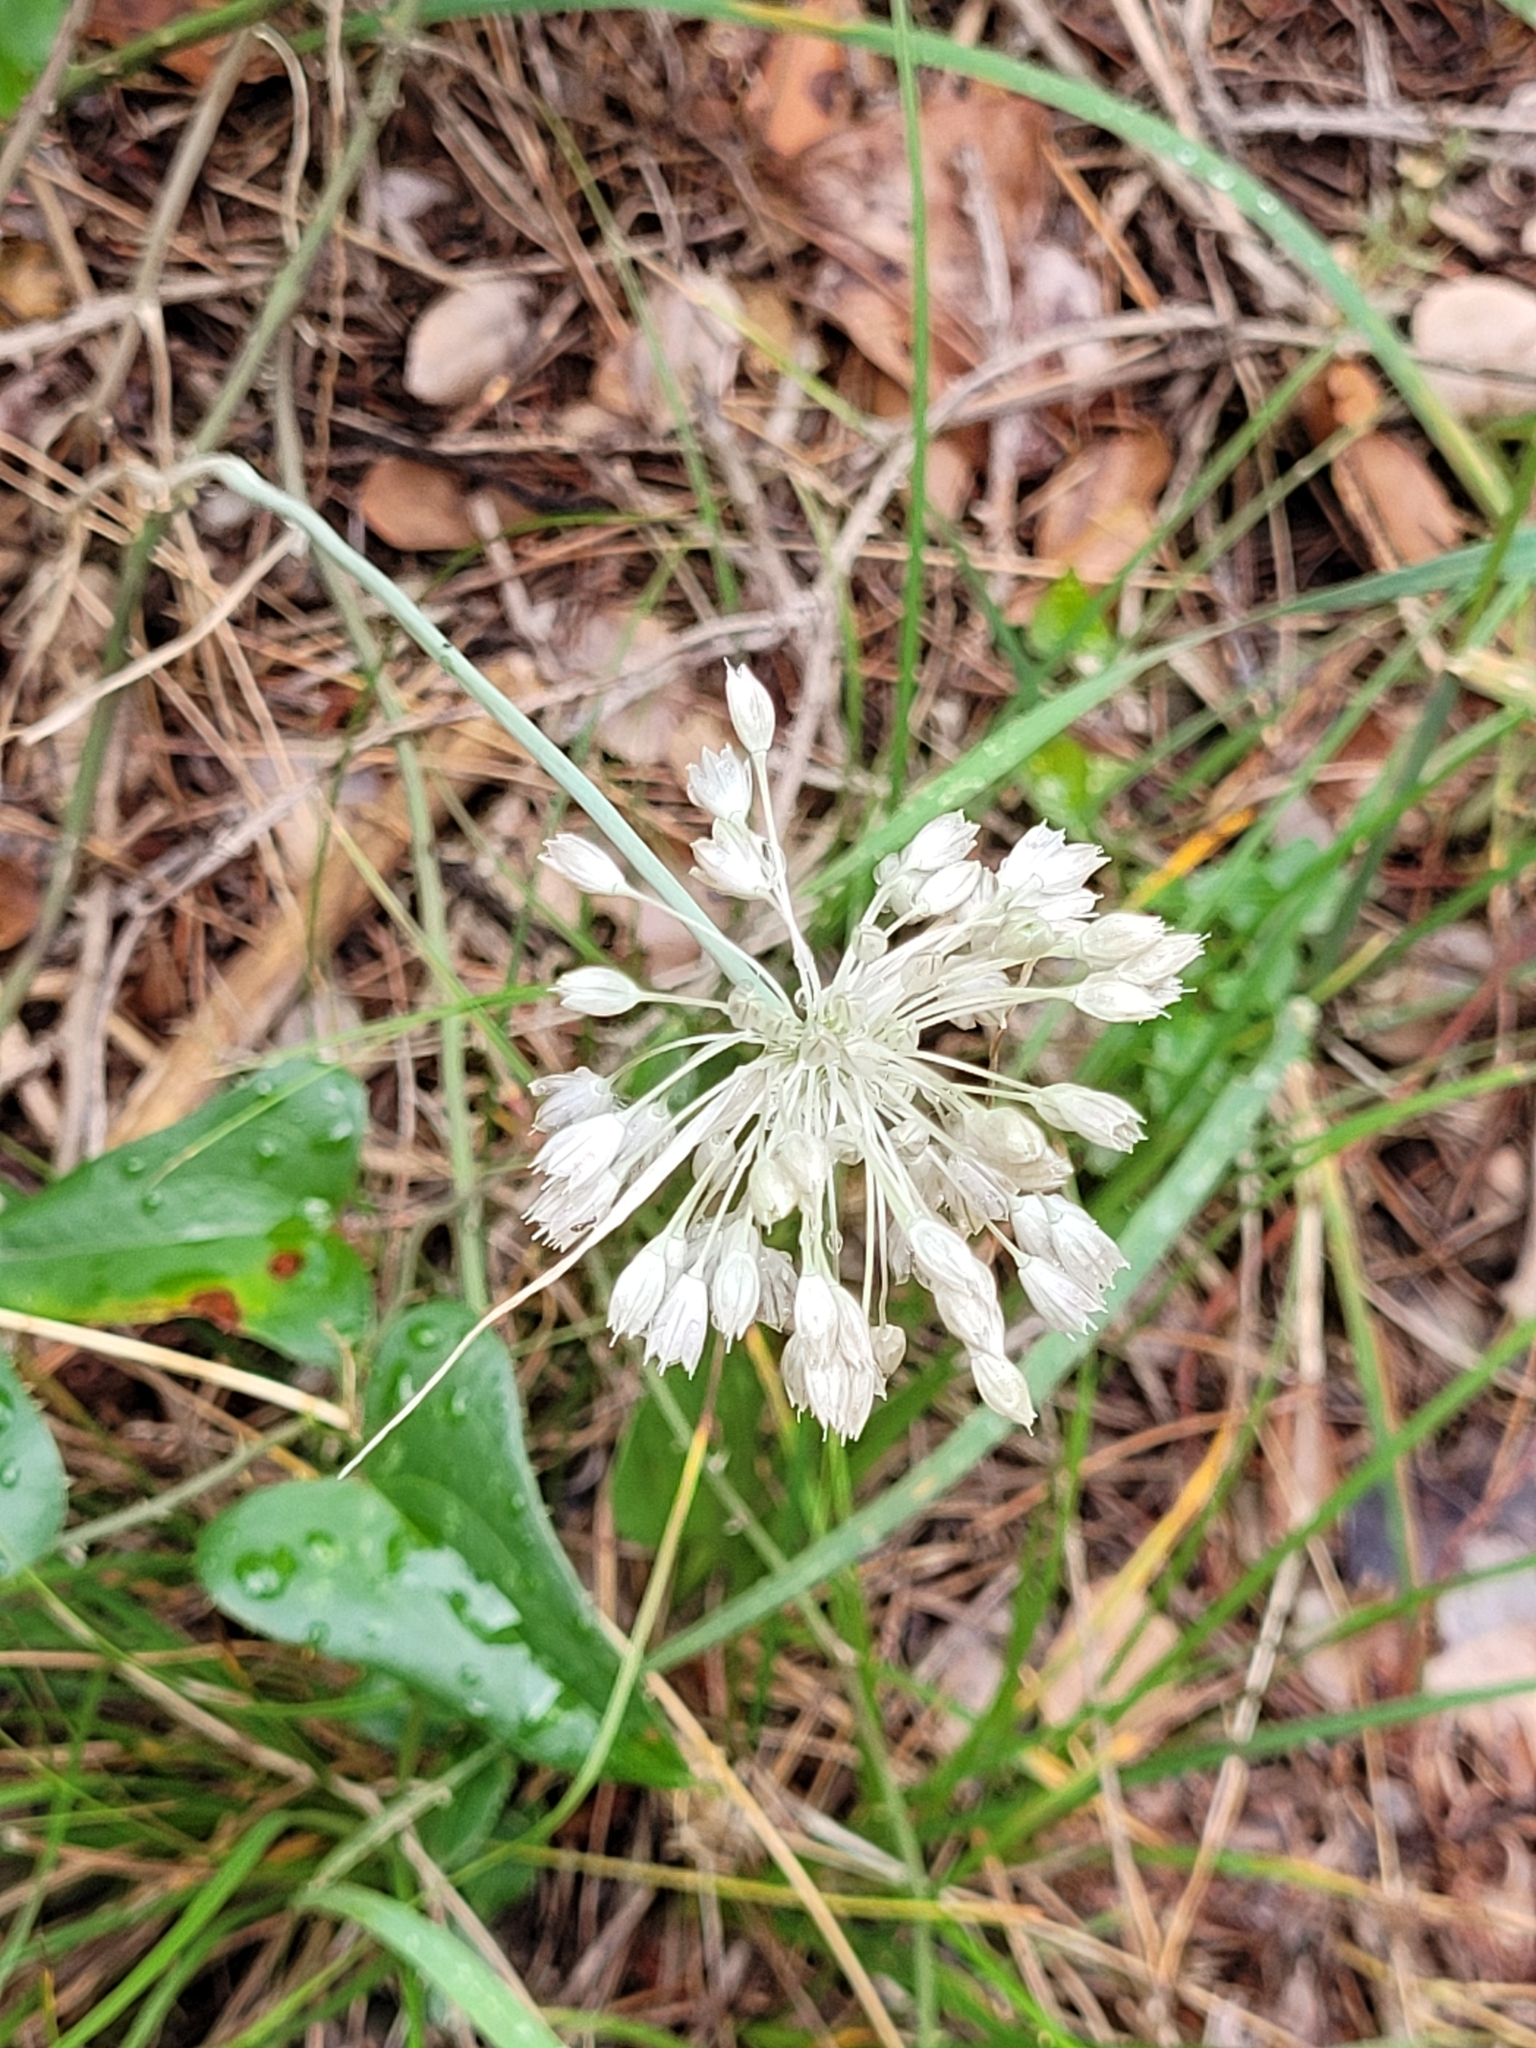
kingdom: Plantae
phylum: Tracheophyta
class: Liliopsida
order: Asparagales
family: Amaryllidaceae
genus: Allium
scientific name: Allium tenuiflorum
